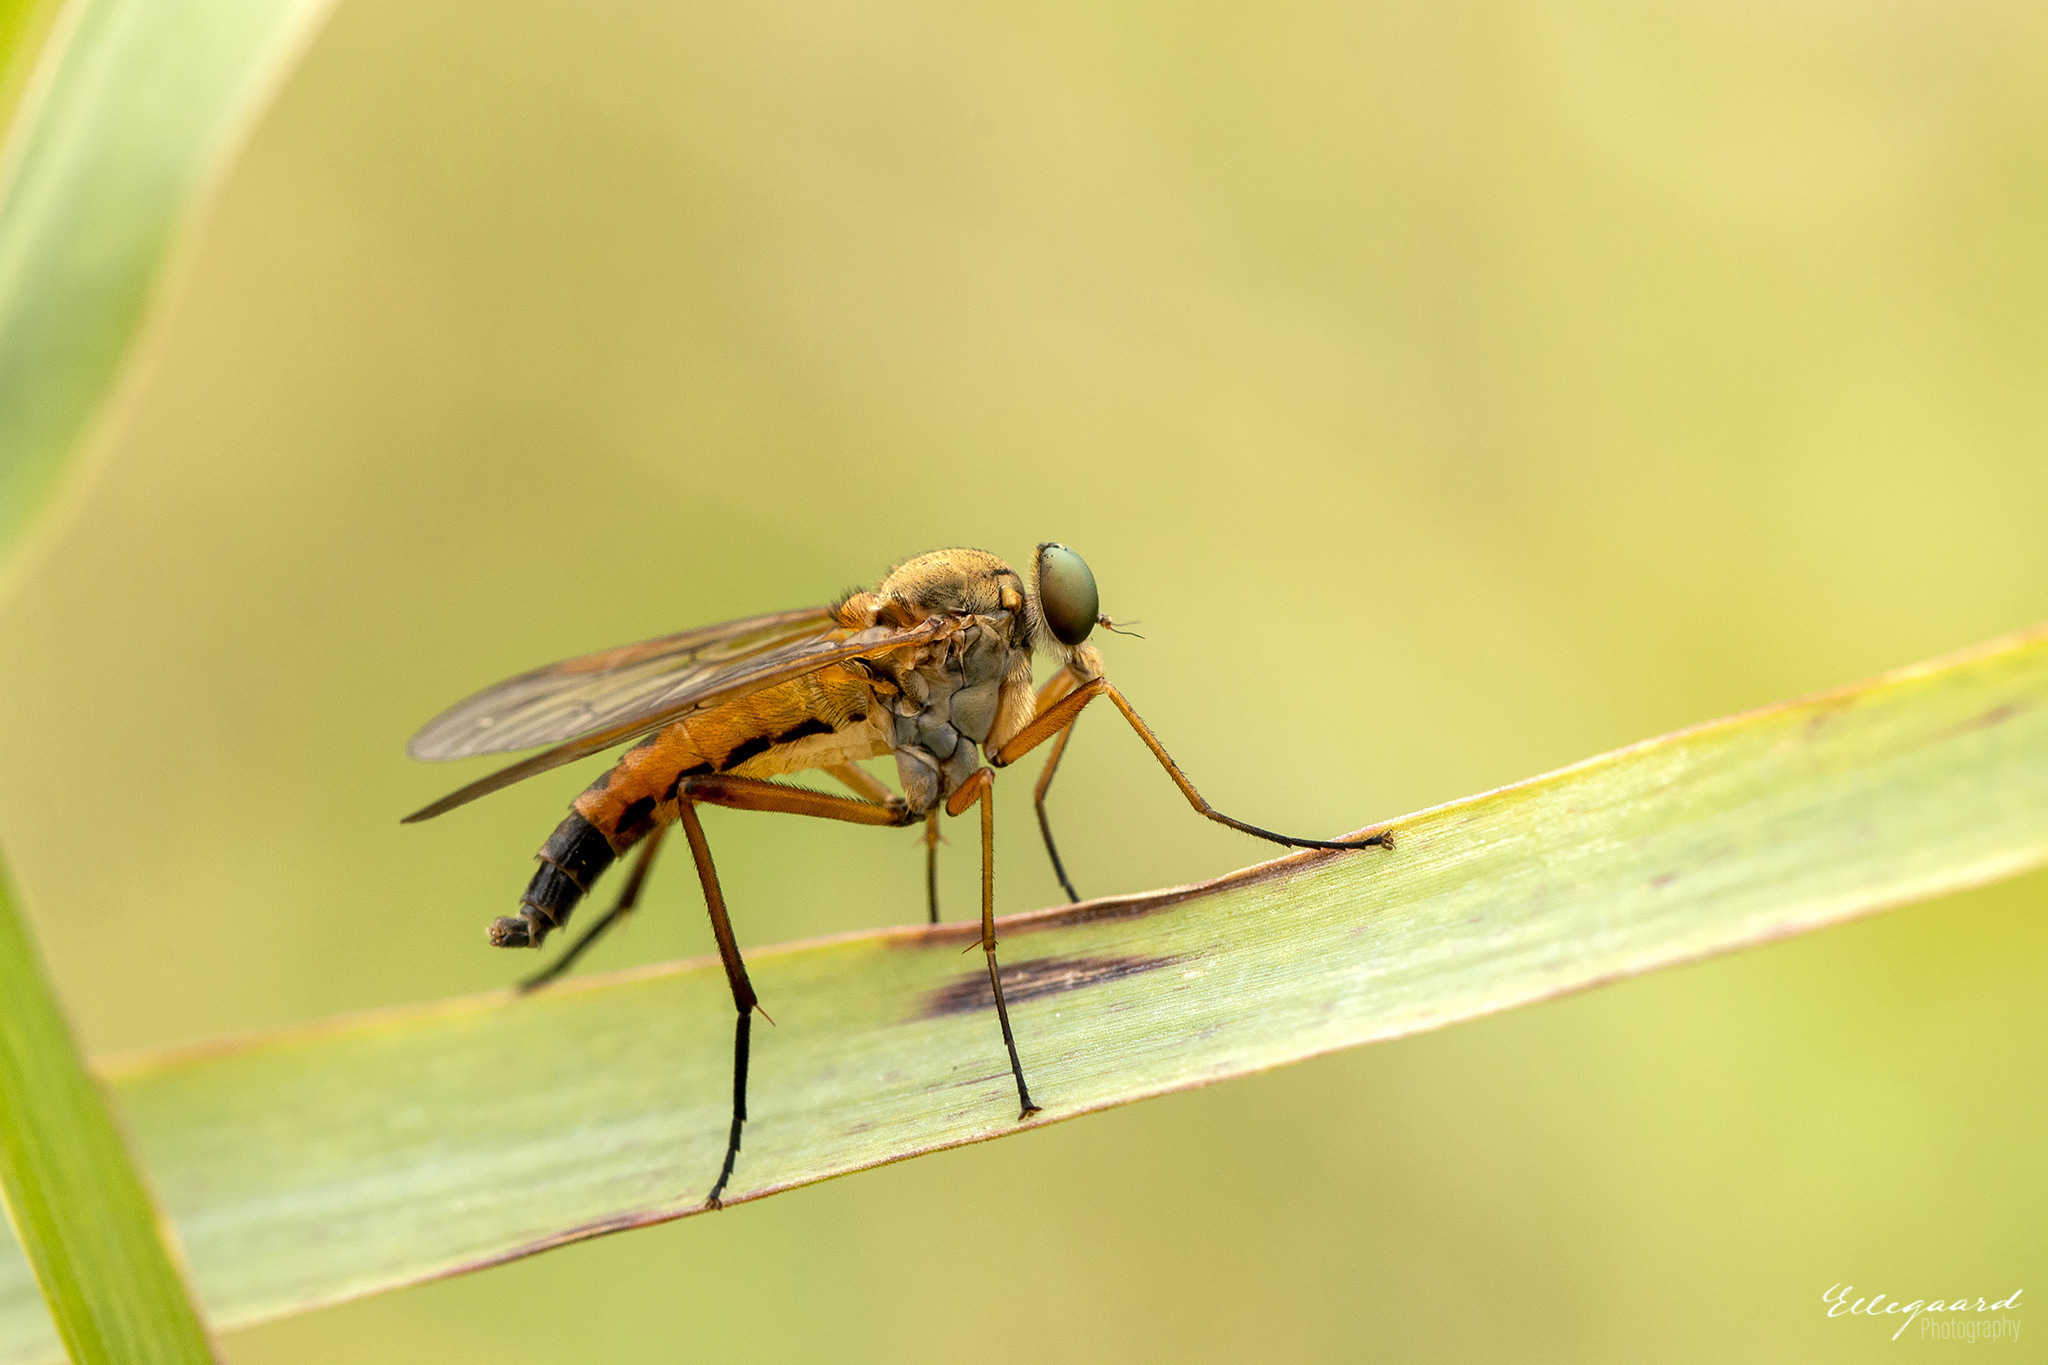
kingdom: Animalia
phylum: Arthropoda
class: Insecta
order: Diptera
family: Rhagionidae
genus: Rhagio
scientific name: Rhagio tringaria
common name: Marsh snipefly
